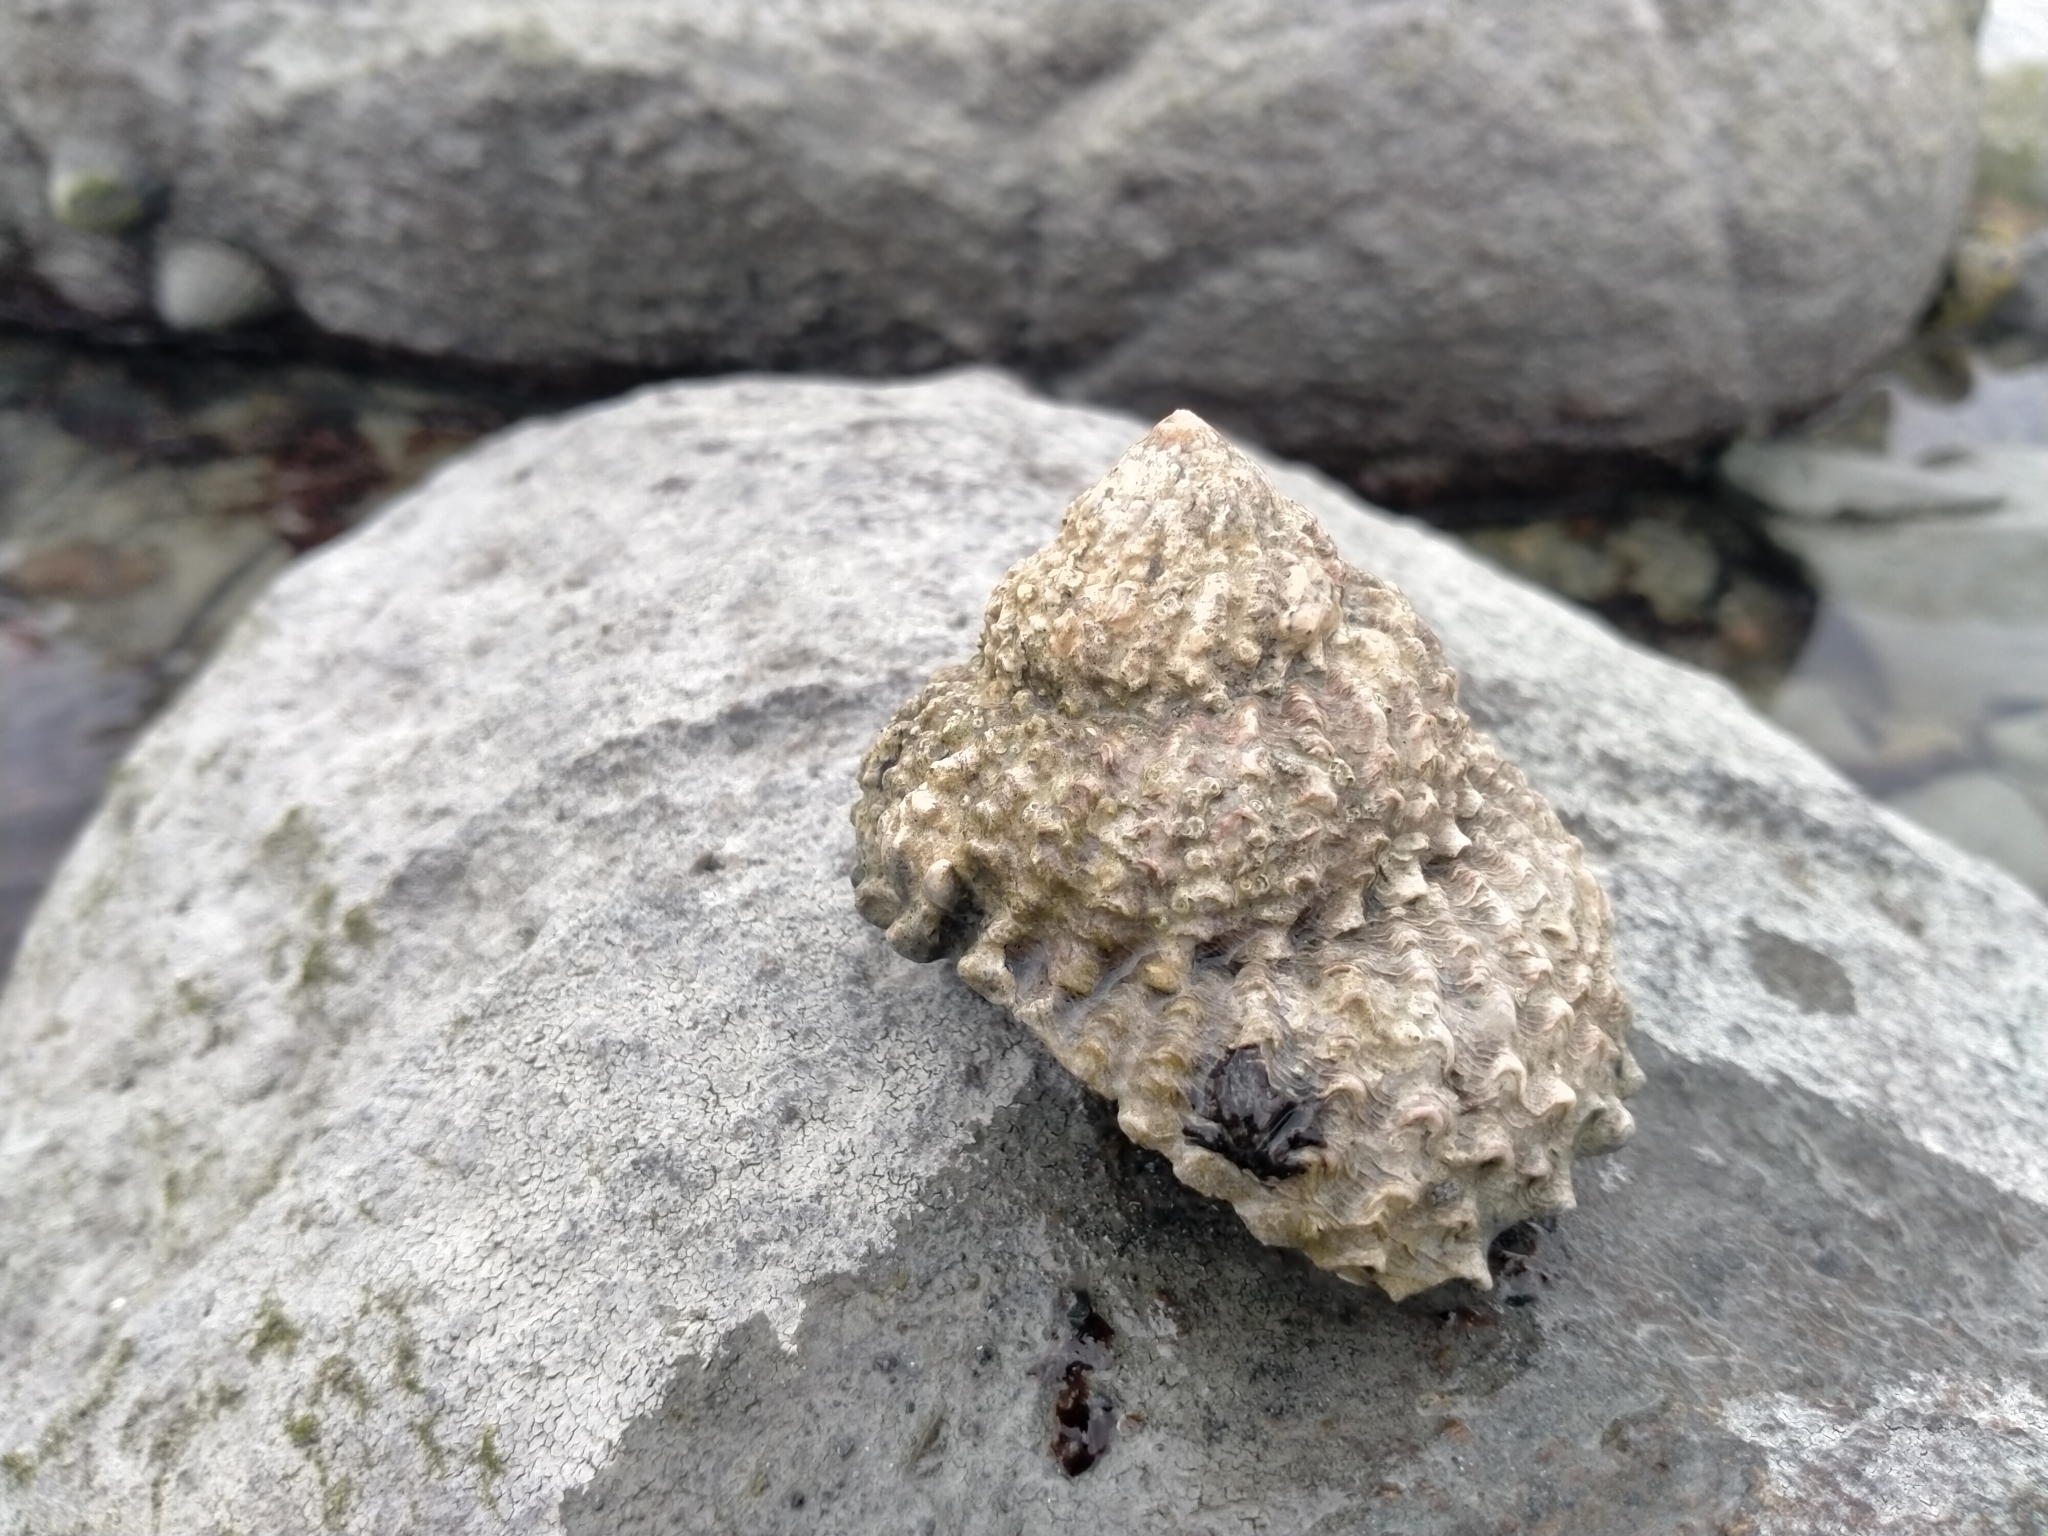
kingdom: Animalia
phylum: Mollusca
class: Gastropoda
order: Trochida
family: Turbinidae
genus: Cookia
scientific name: Cookia sulcata
